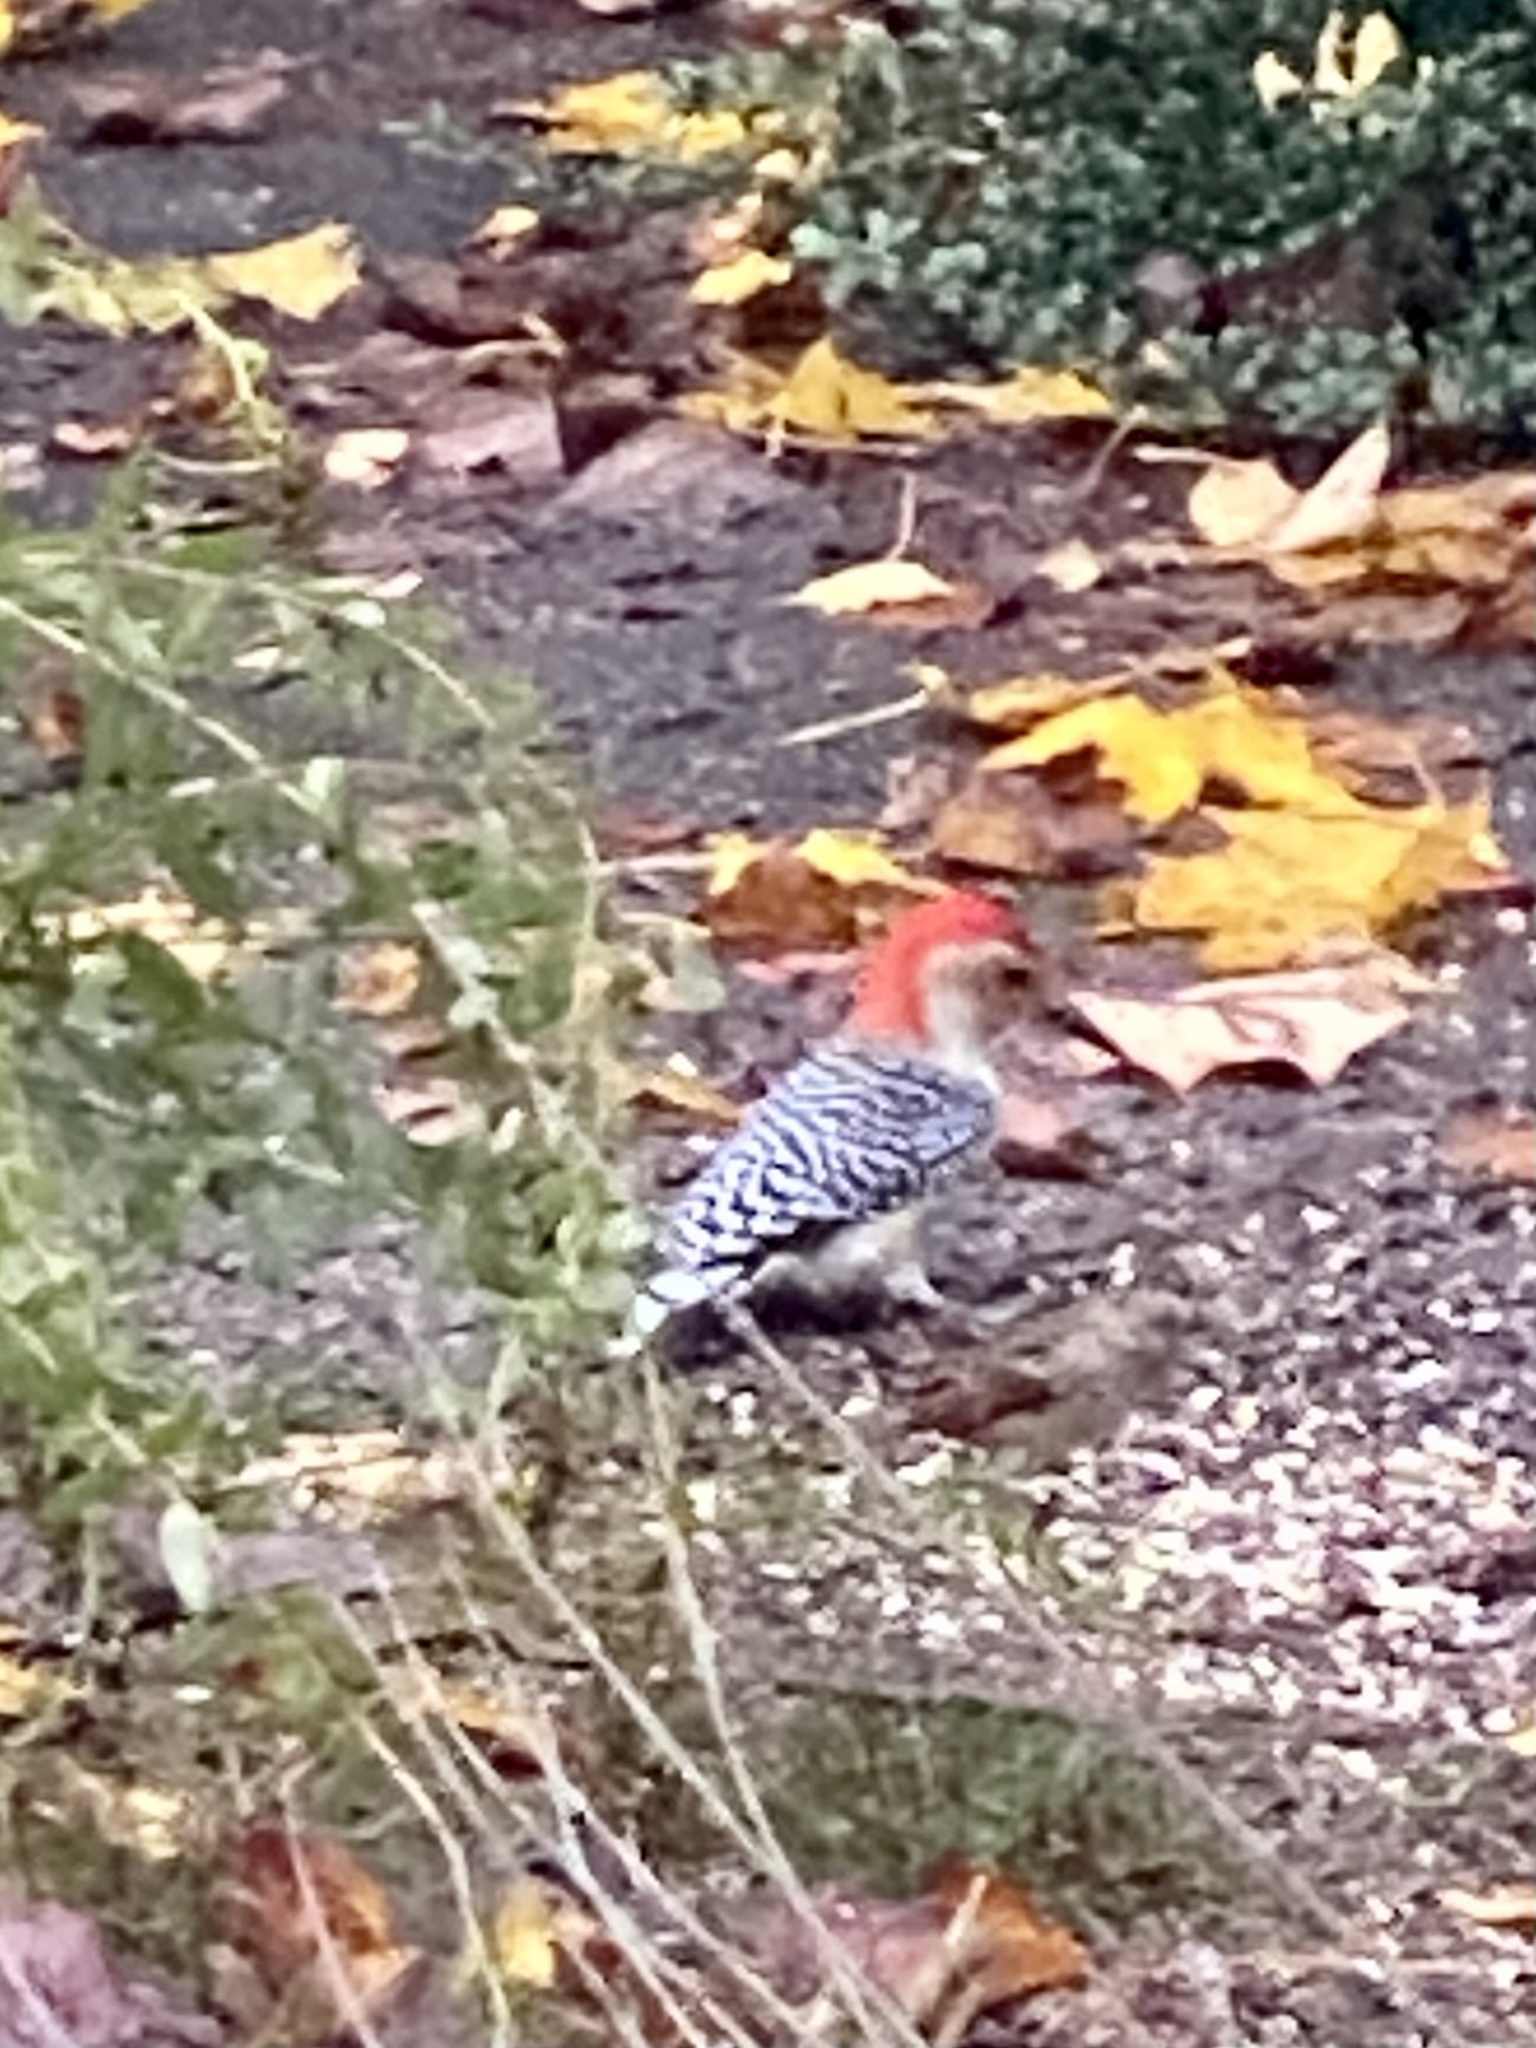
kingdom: Animalia
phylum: Chordata
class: Aves
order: Piciformes
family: Picidae
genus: Melanerpes
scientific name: Melanerpes carolinus
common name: Red-bellied woodpecker
